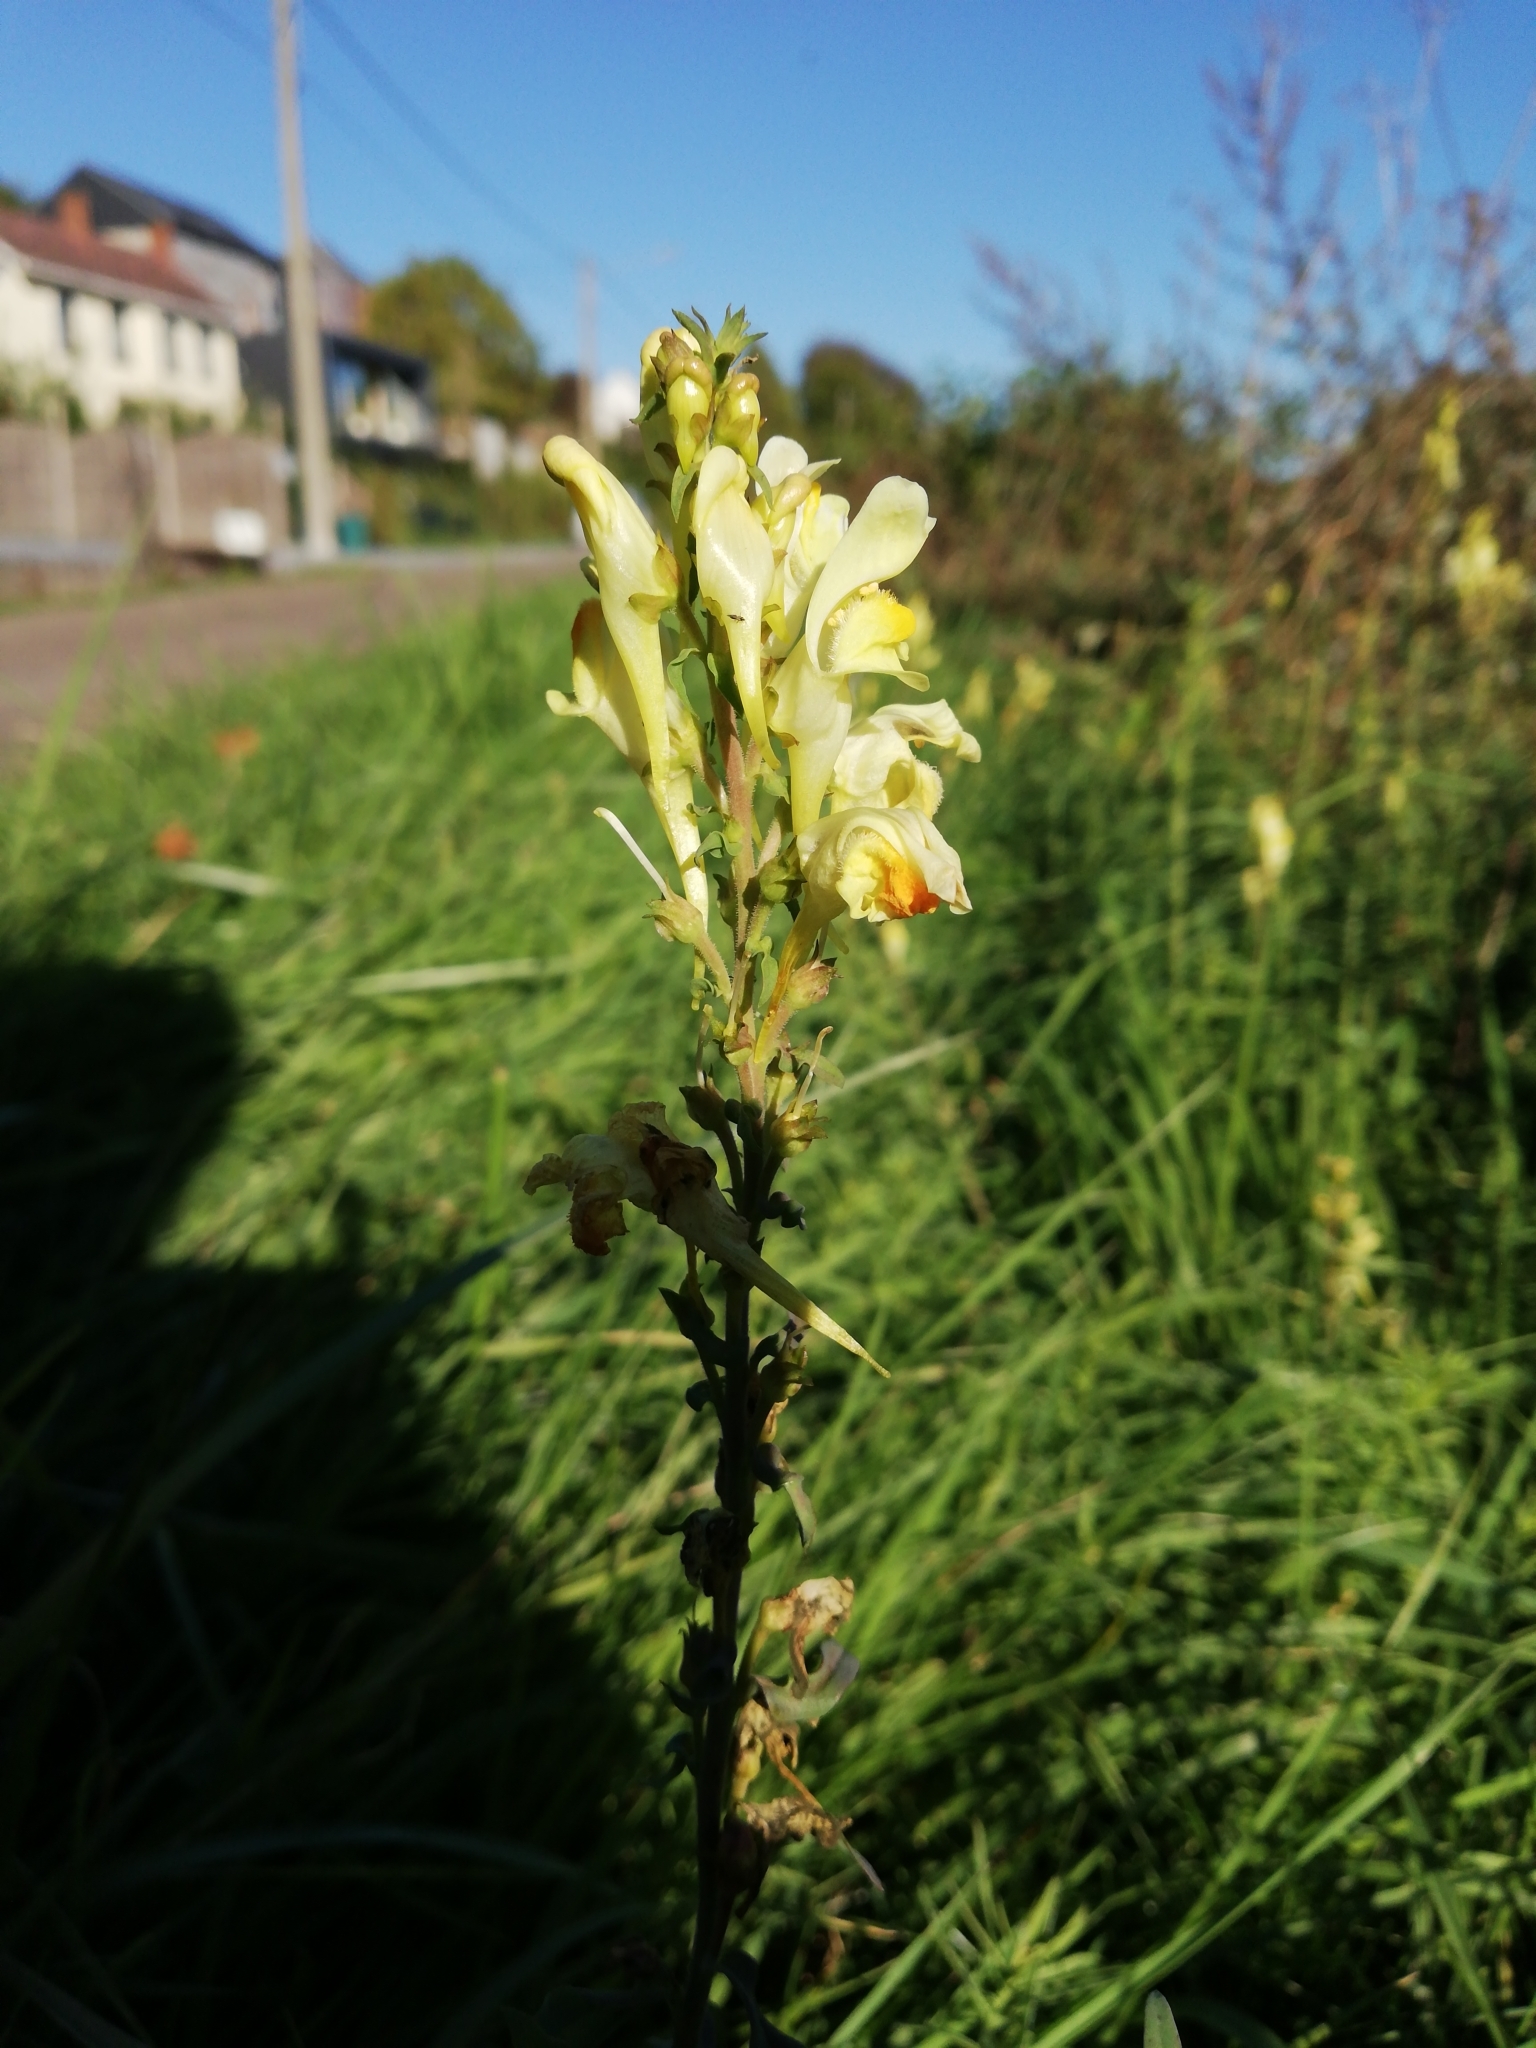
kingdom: Plantae
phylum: Tracheophyta
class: Magnoliopsida
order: Lamiales
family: Plantaginaceae
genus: Linaria
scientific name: Linaria vulgaris
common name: Butter and eggs
